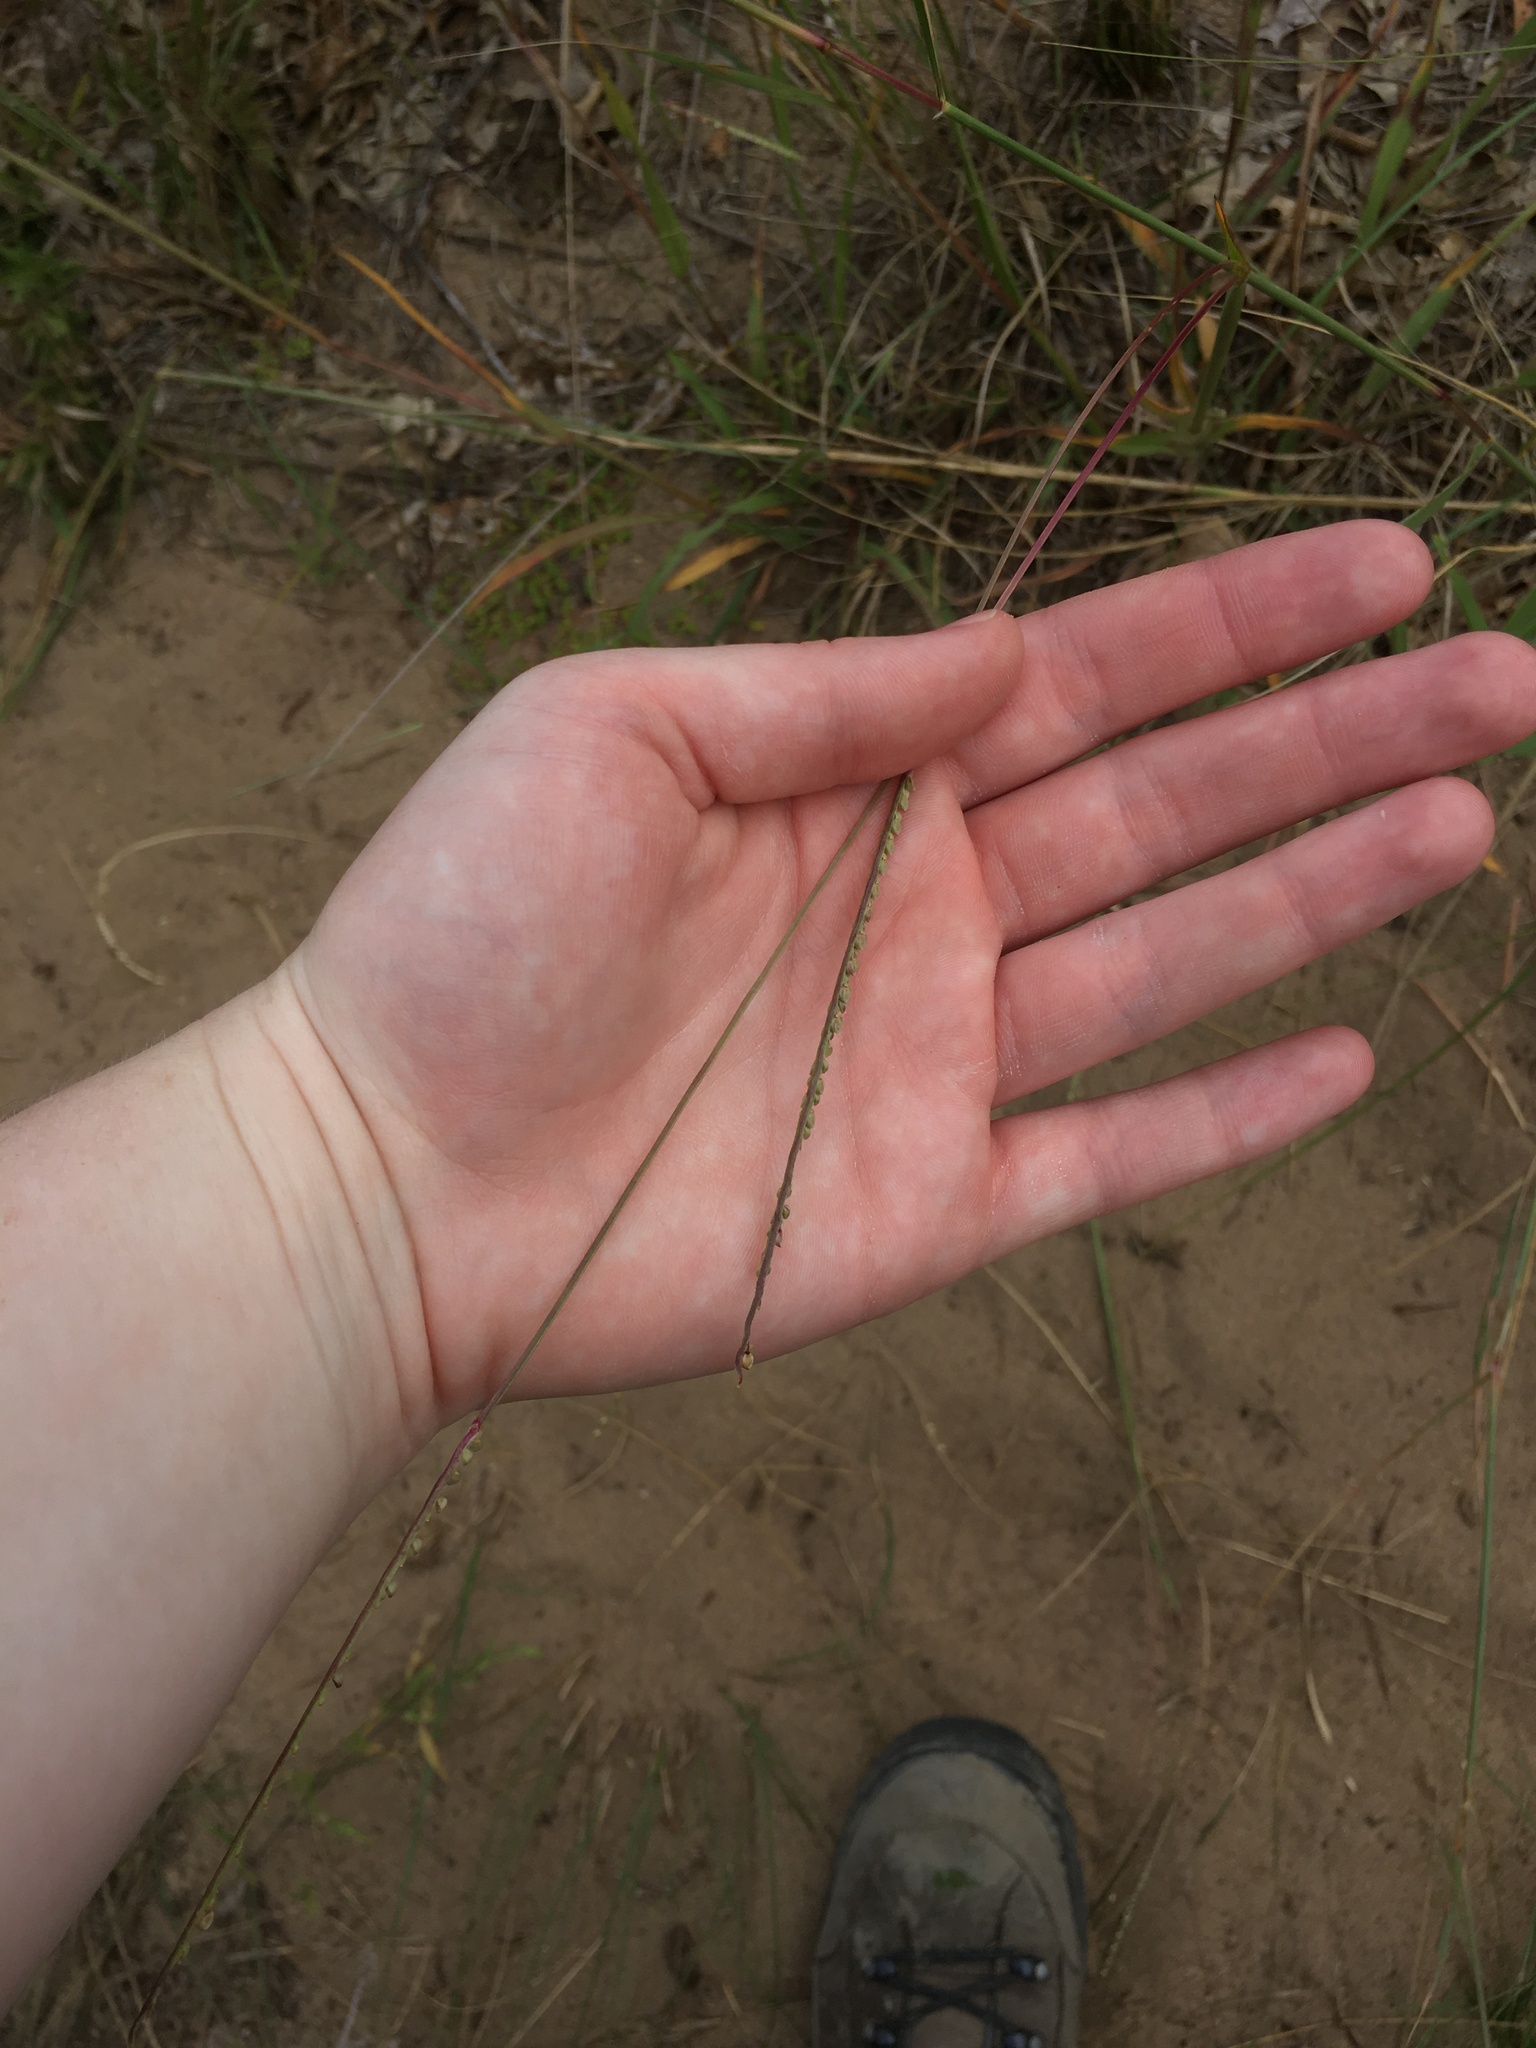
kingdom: Plantae
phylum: Tracheophyta
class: Liliopsida
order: Poales
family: Poaceae
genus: Paspalum
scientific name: Paspalum setaceum
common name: Slender paspalum
